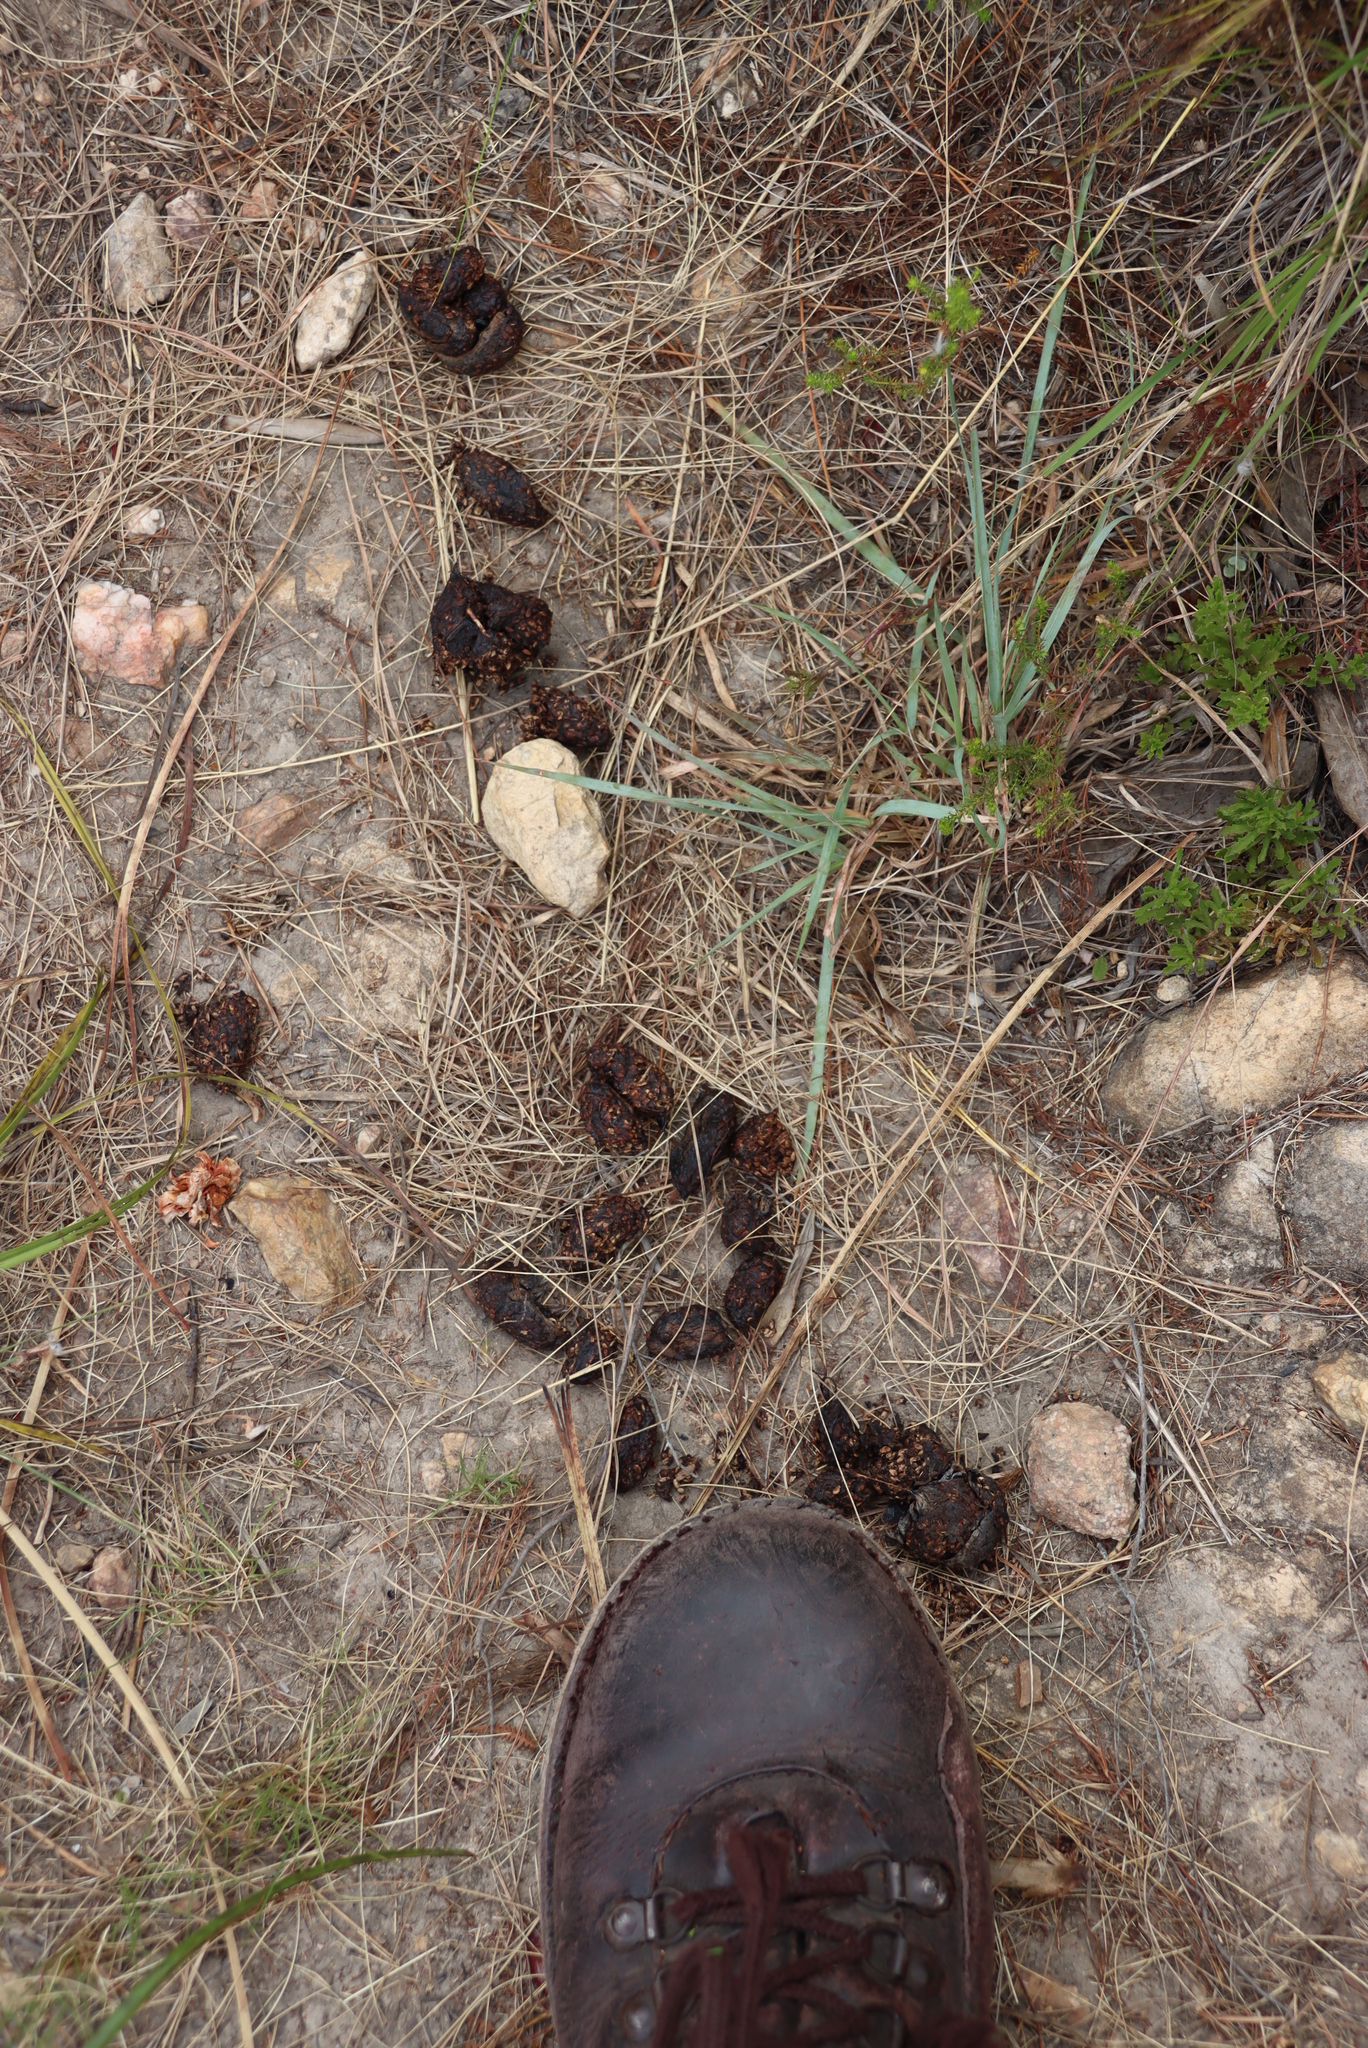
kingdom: Animalia
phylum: Chordata
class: Mammalia
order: Rodentia
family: Hystricidae
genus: Hystrix
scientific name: Hystrix africaeaustralis
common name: Cape porcupine
